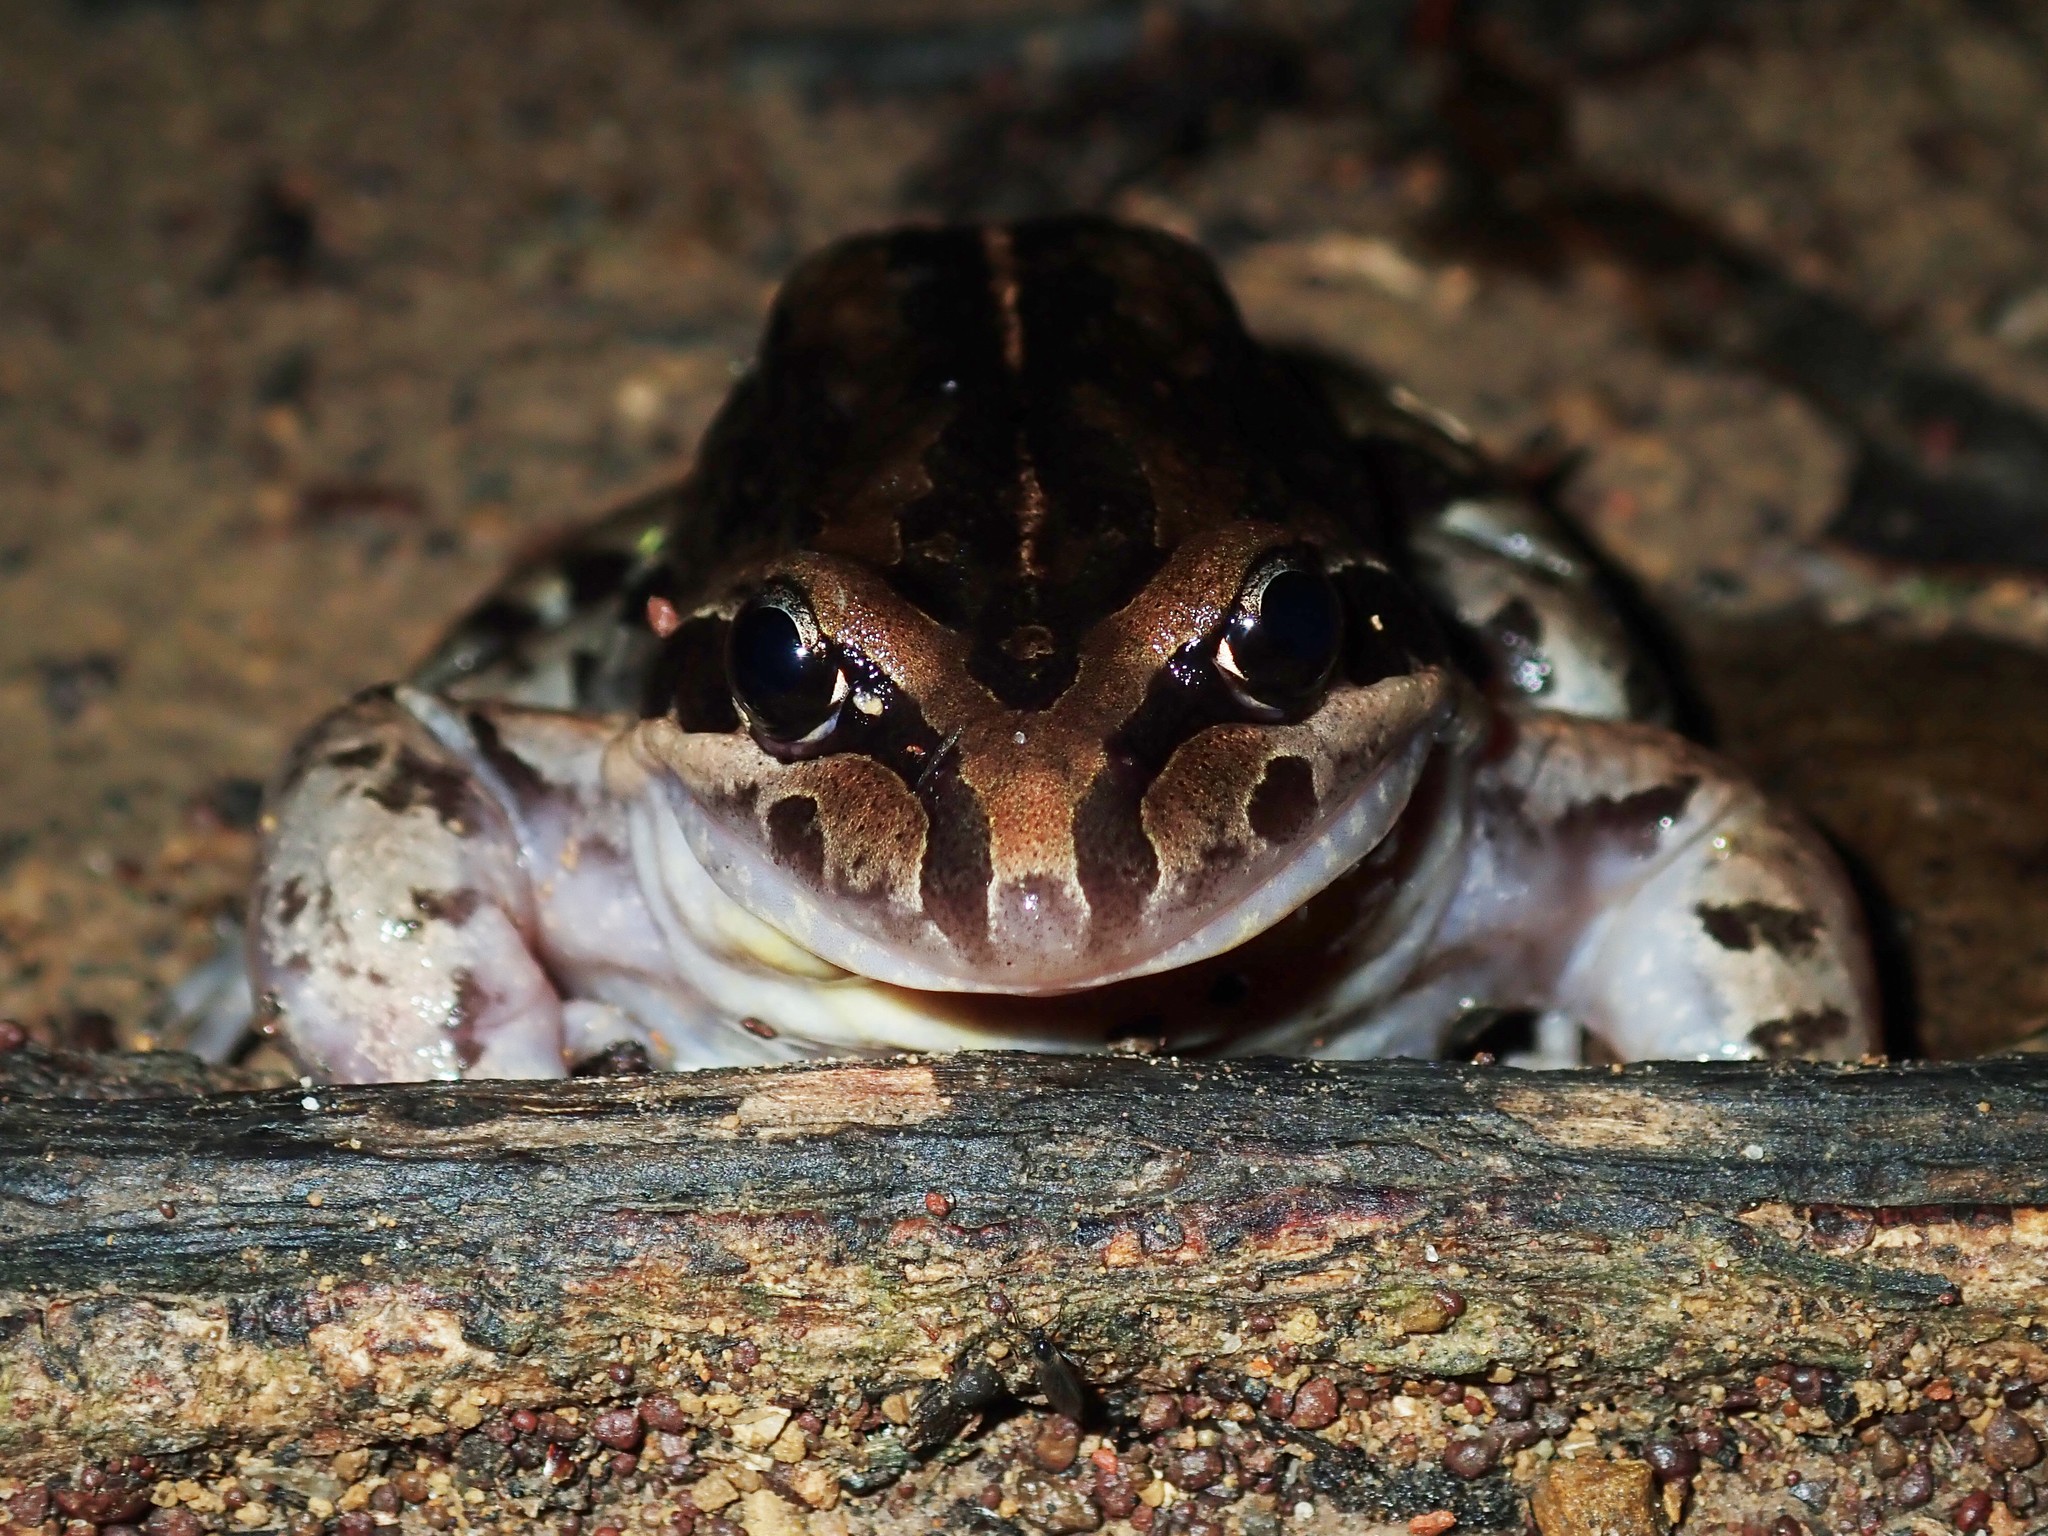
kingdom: Animalia
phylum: Chordata
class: Amphibia
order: Anura
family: Limnodynastidae
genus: Limnodynastes
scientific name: Limnodynastes peronii
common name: Brown frog
